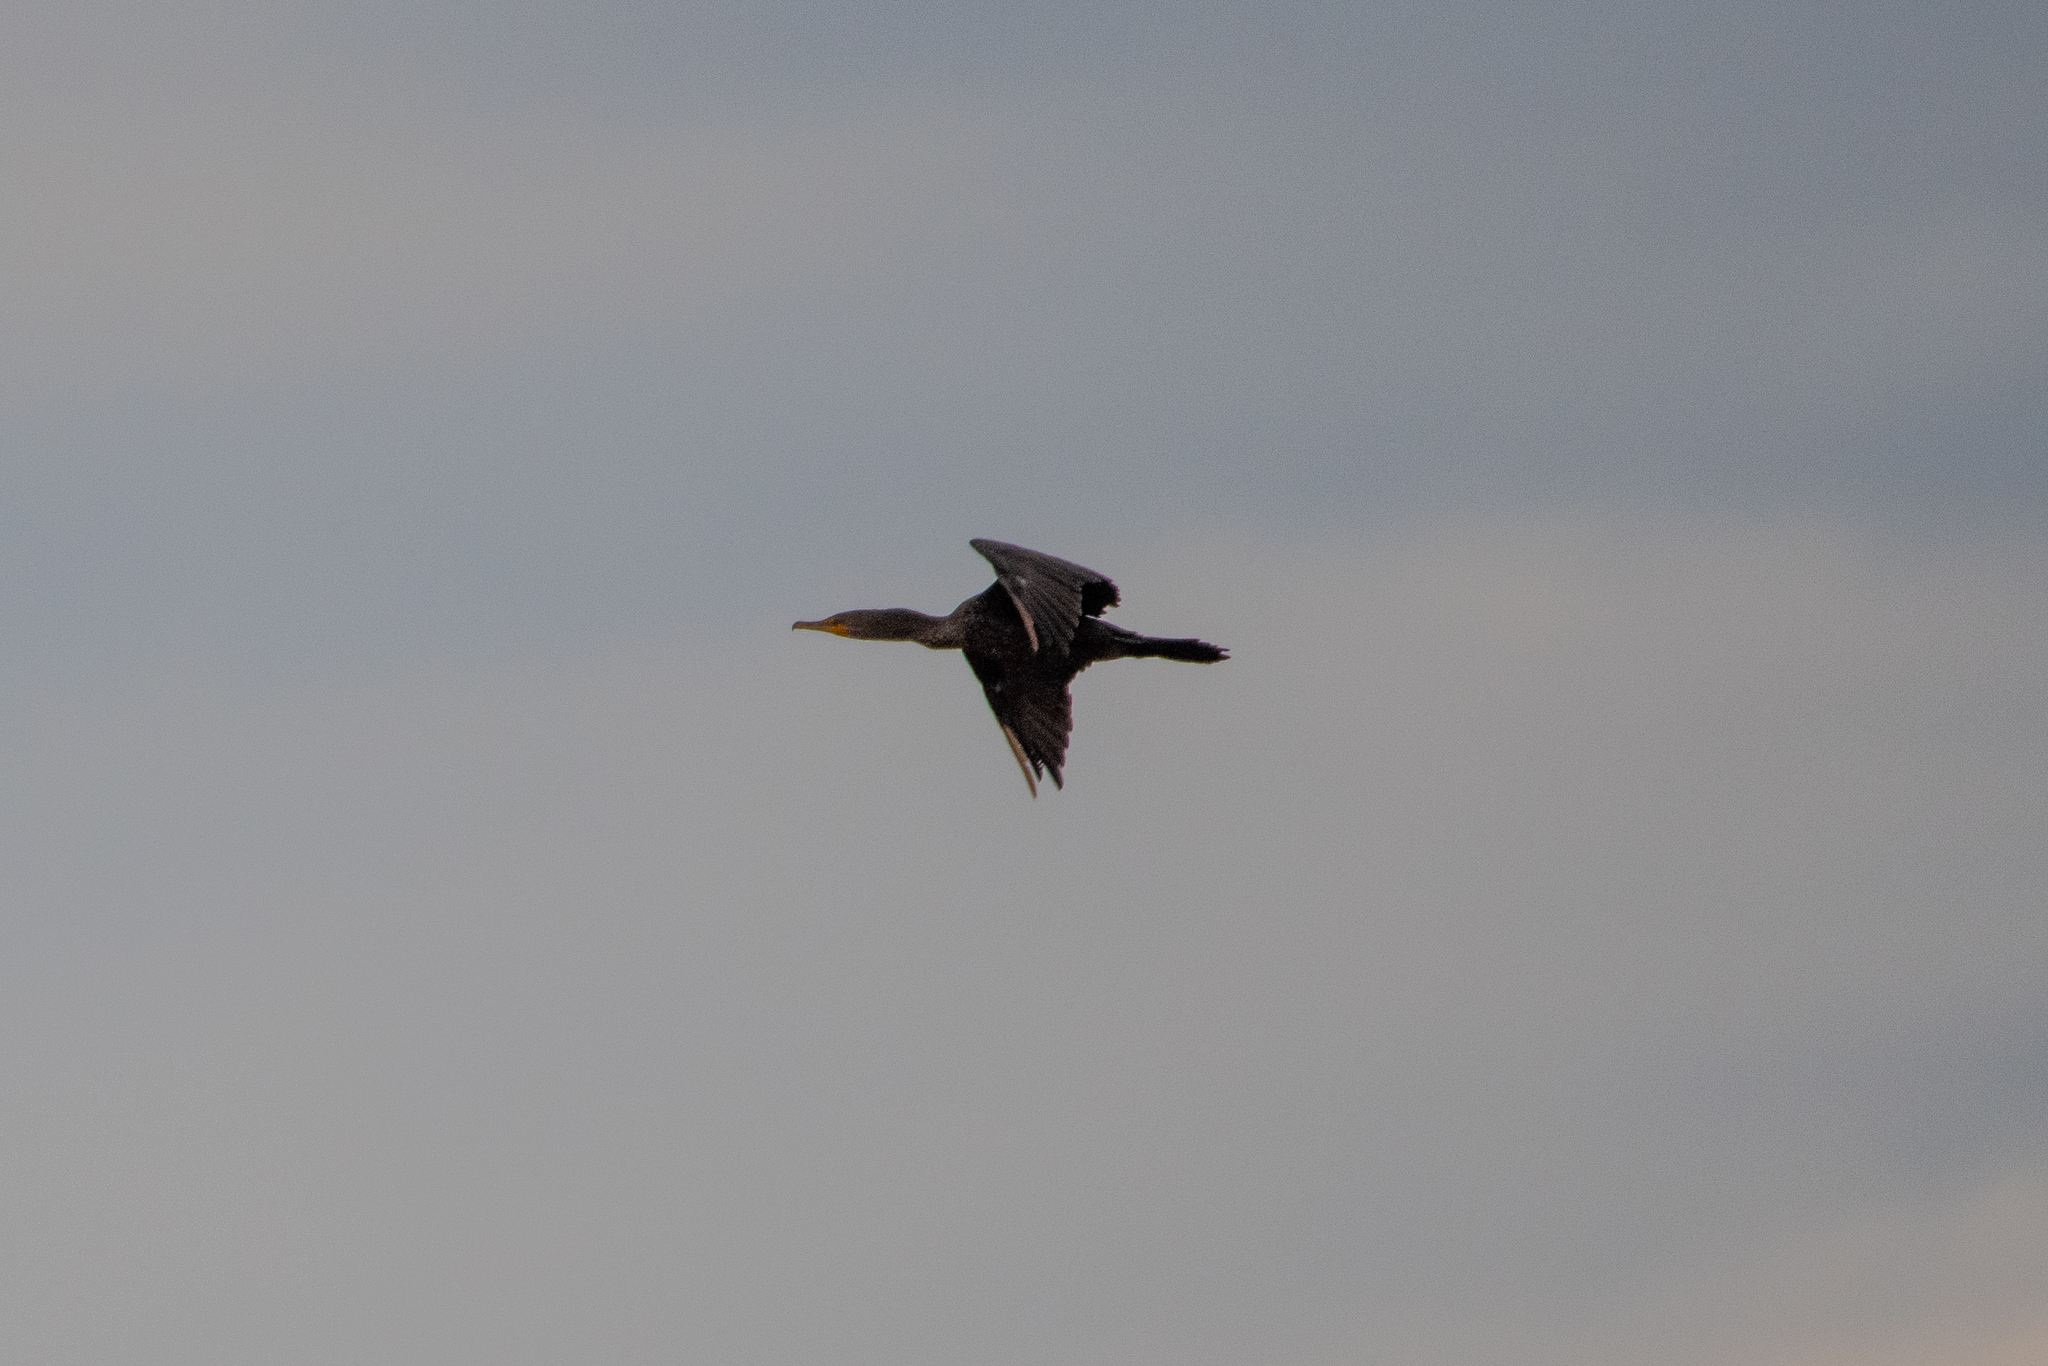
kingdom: Animalia
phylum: Chordata
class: Aves
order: Suliformes
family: Phalacrocoracidae
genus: Phalacrocorax
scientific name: Phalacrocorax auritus
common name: Double-crested cormorant
